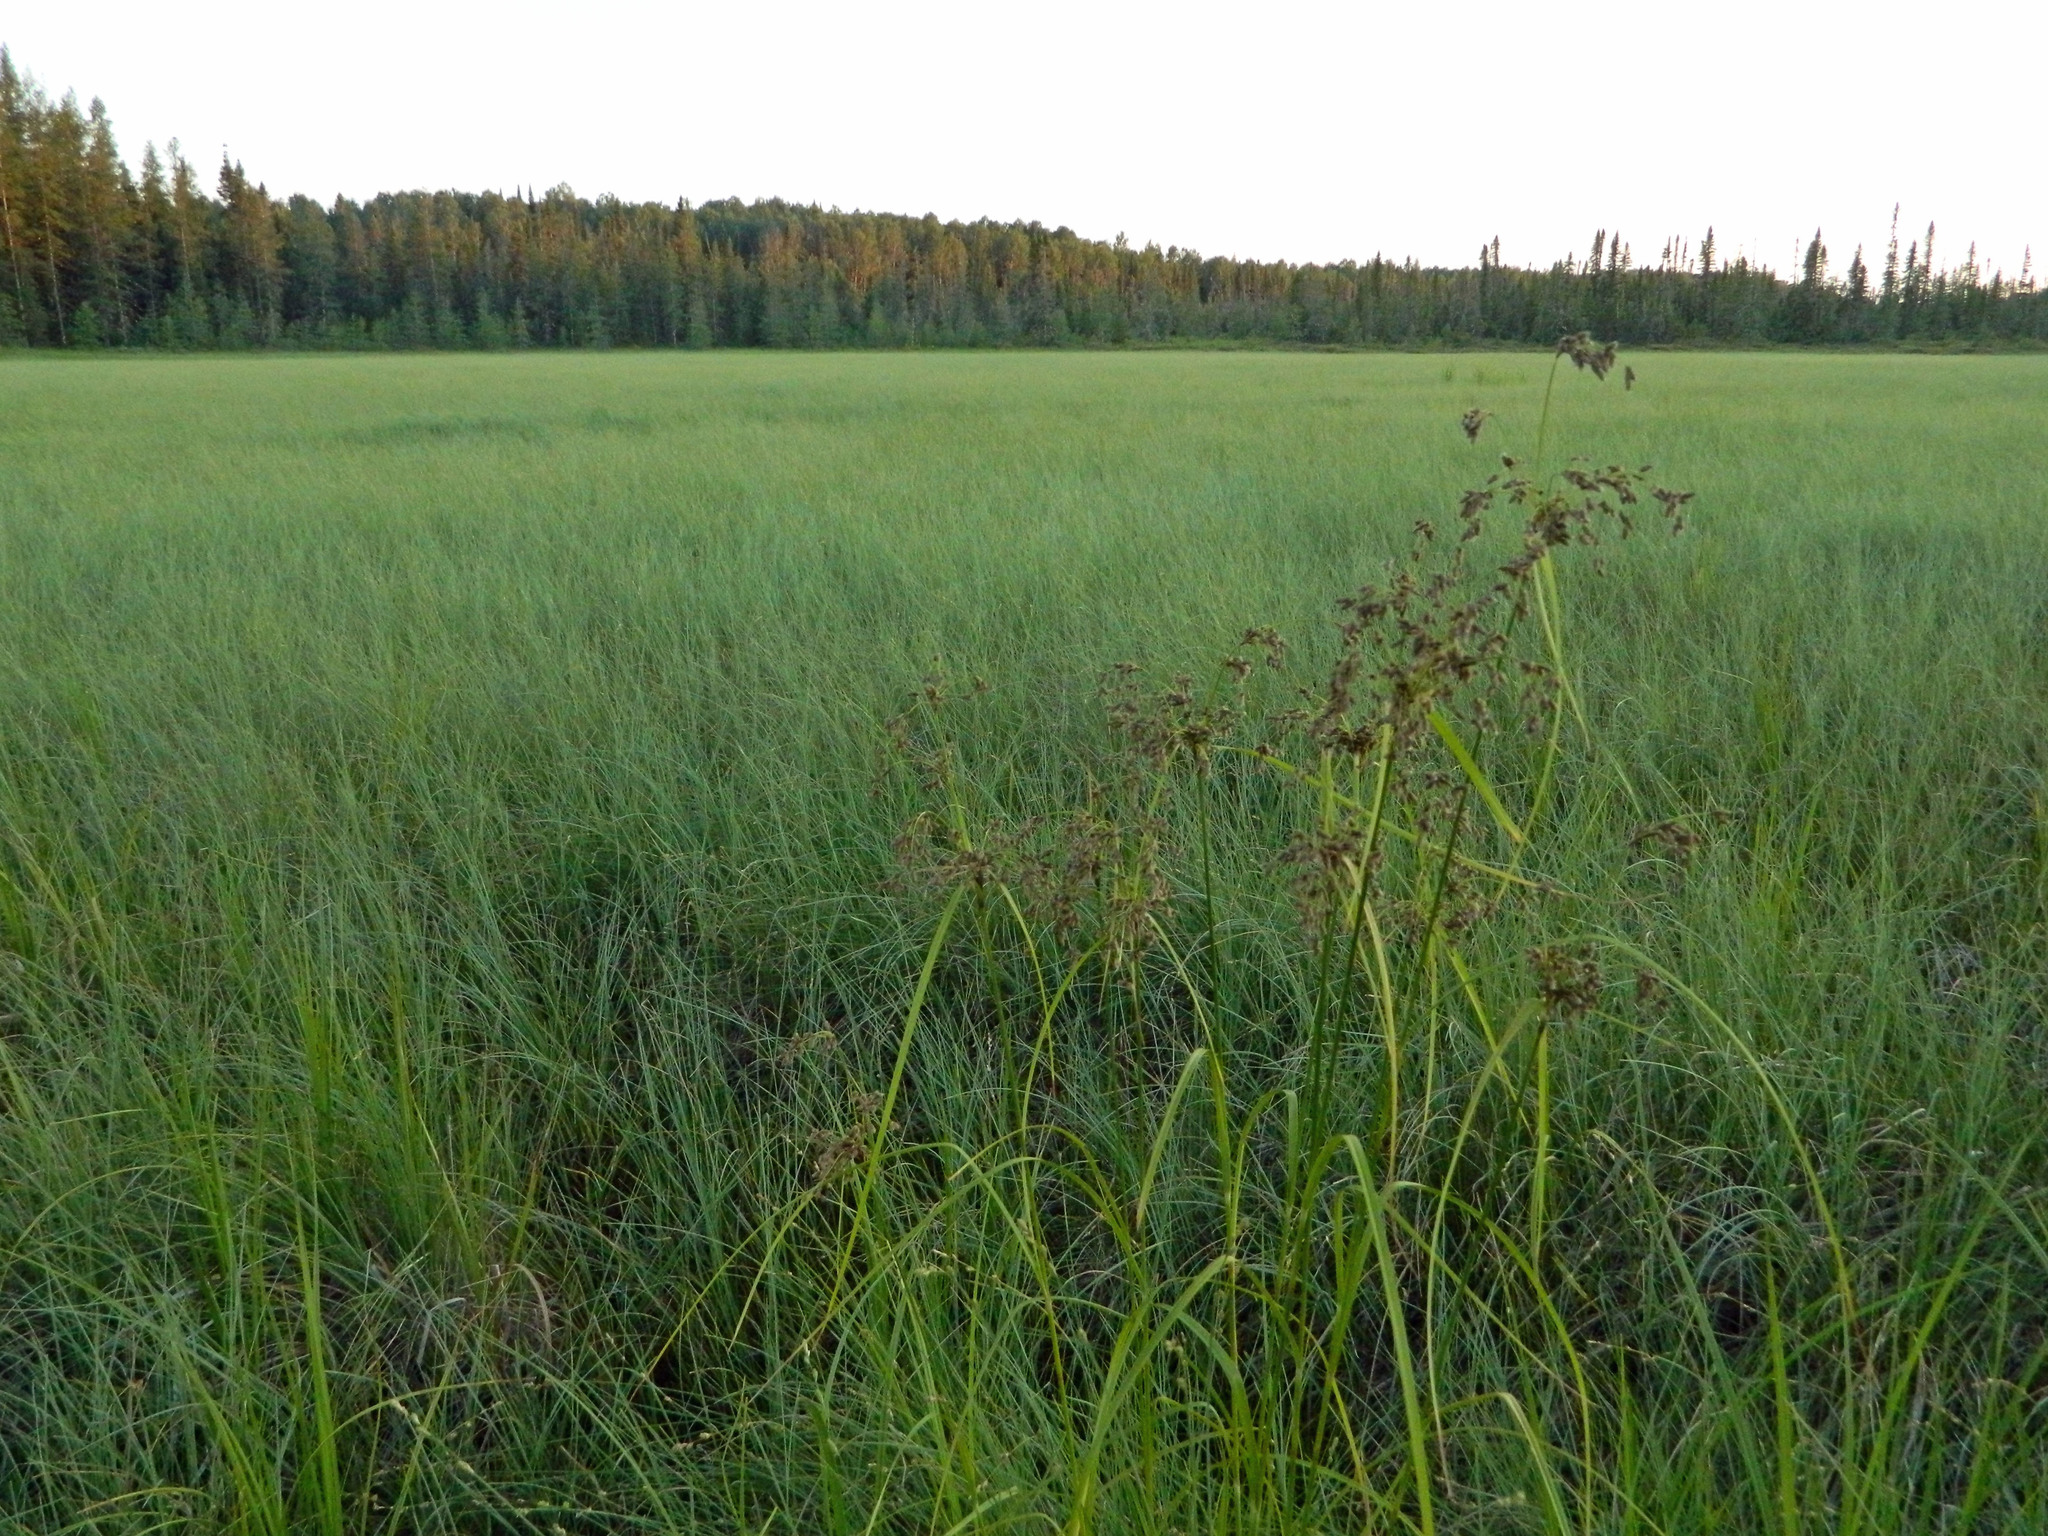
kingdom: Plantae
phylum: Tracheophyta
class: Liliopsida
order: Poales
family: Cyperaceae
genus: Scirpus
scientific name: Scirpus atrocinctus
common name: Black-girdled bulrush
